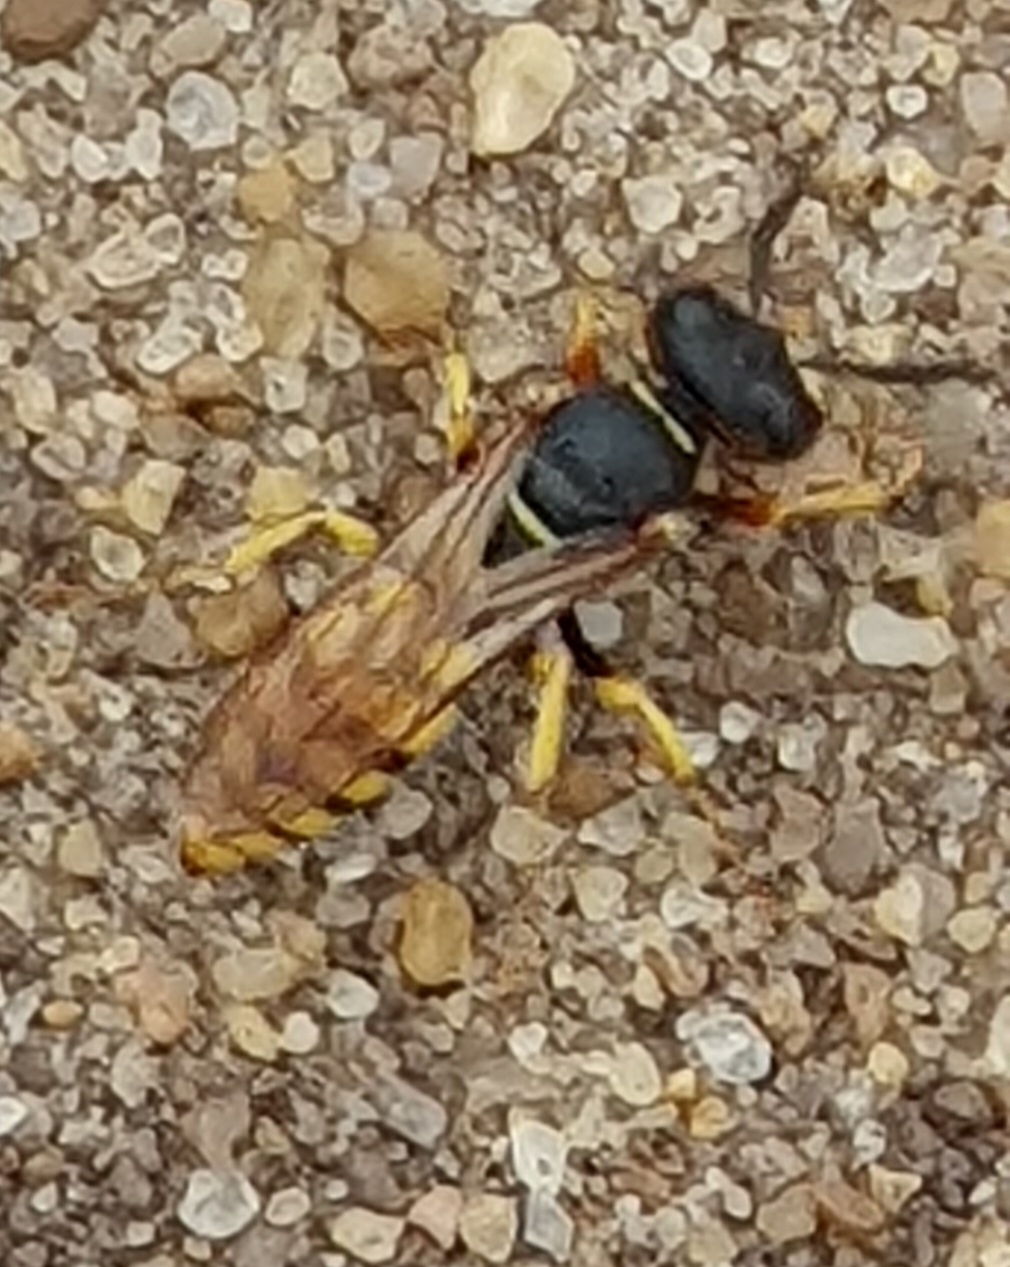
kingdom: Animalia
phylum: Arthropoda
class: Insecta
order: Hymenoptera
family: Crabronidae
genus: Philanthus
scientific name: Philanthus triangulum
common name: Bee wolf
